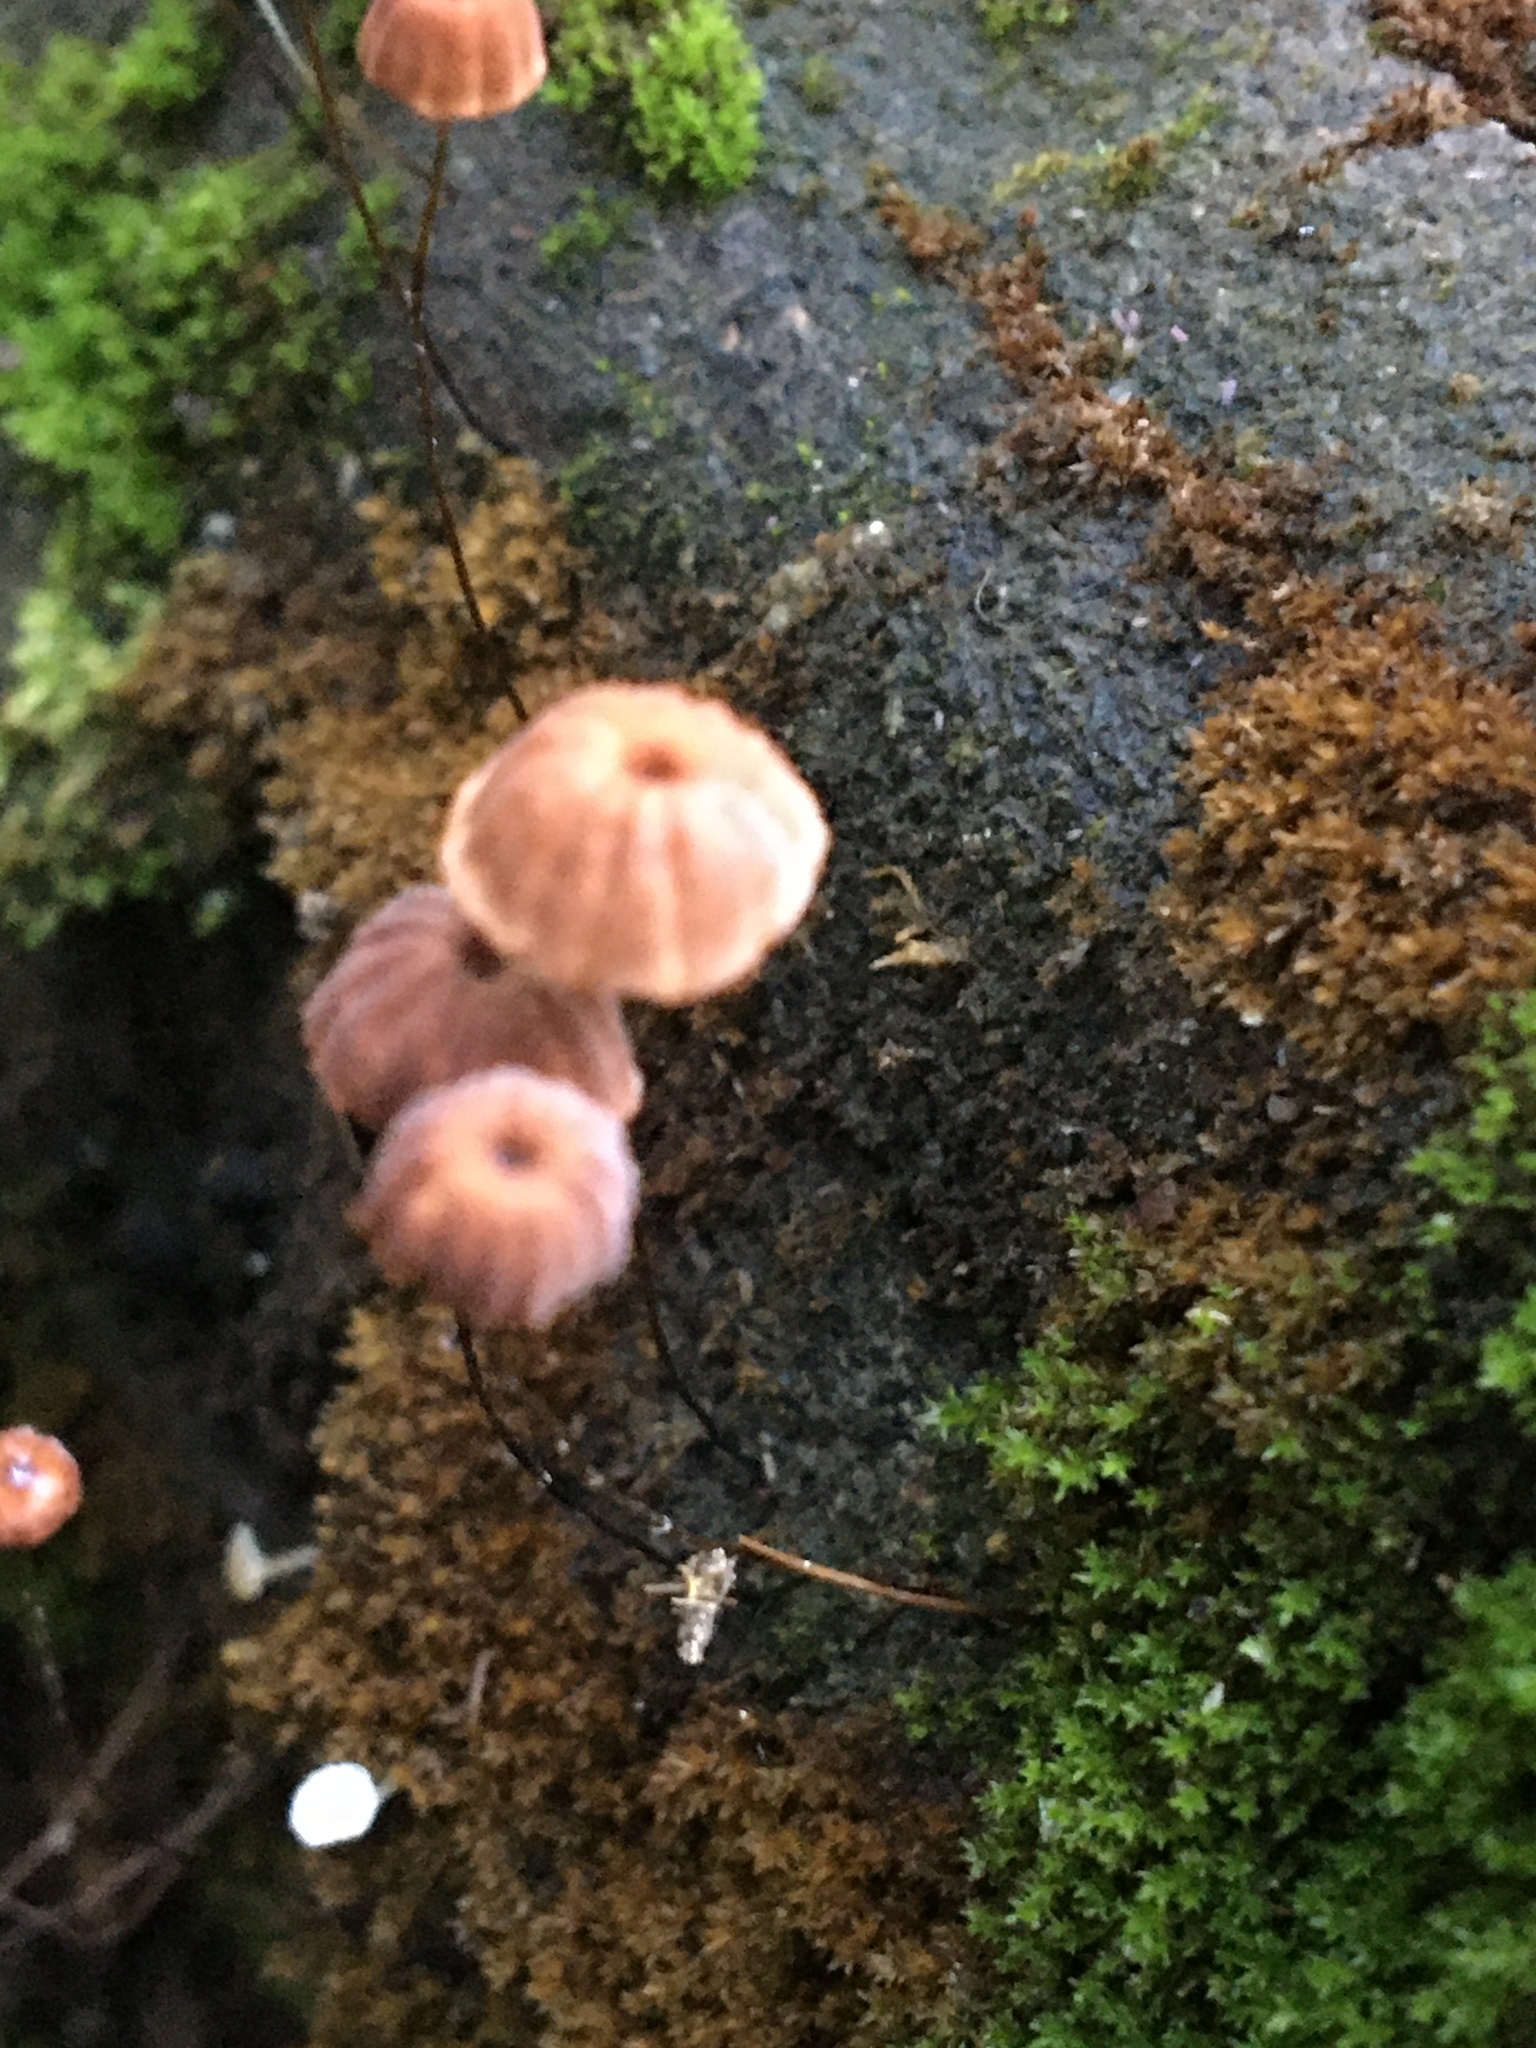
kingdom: Fungi
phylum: Basidiomycota
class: Agaricomycetes
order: Agaricales
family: Marasmiaceae
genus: Marasmius
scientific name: Marasmius crinis-equi
